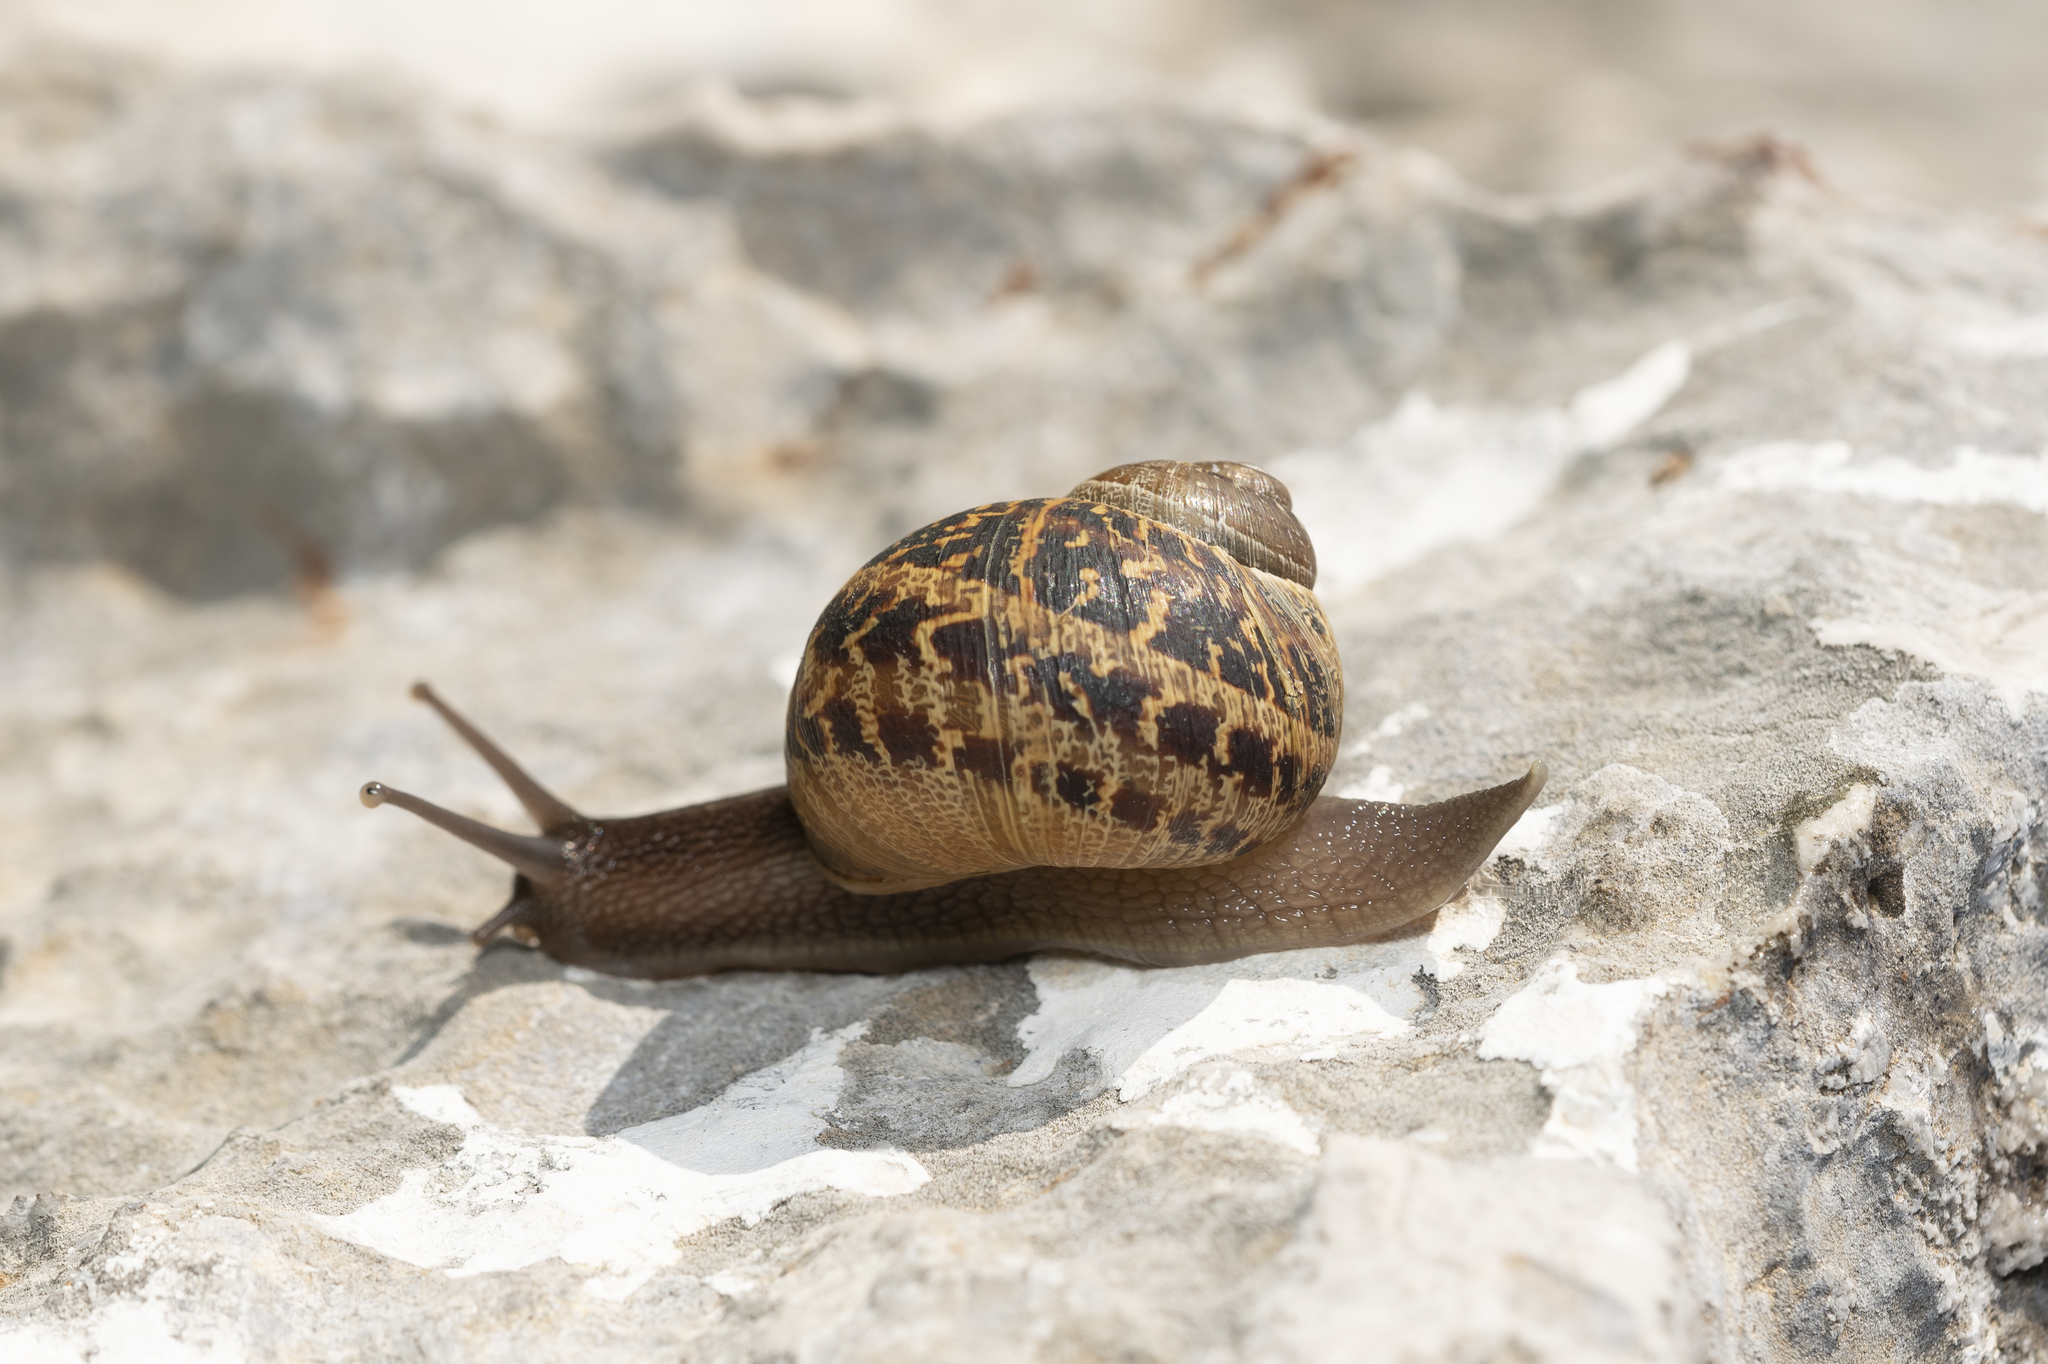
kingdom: Animalia
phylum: Mollusca
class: Gastropoda
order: Stylommatophora
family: Helicidae
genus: Cornu
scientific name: Cornu aspersum
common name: Brown garden snail
